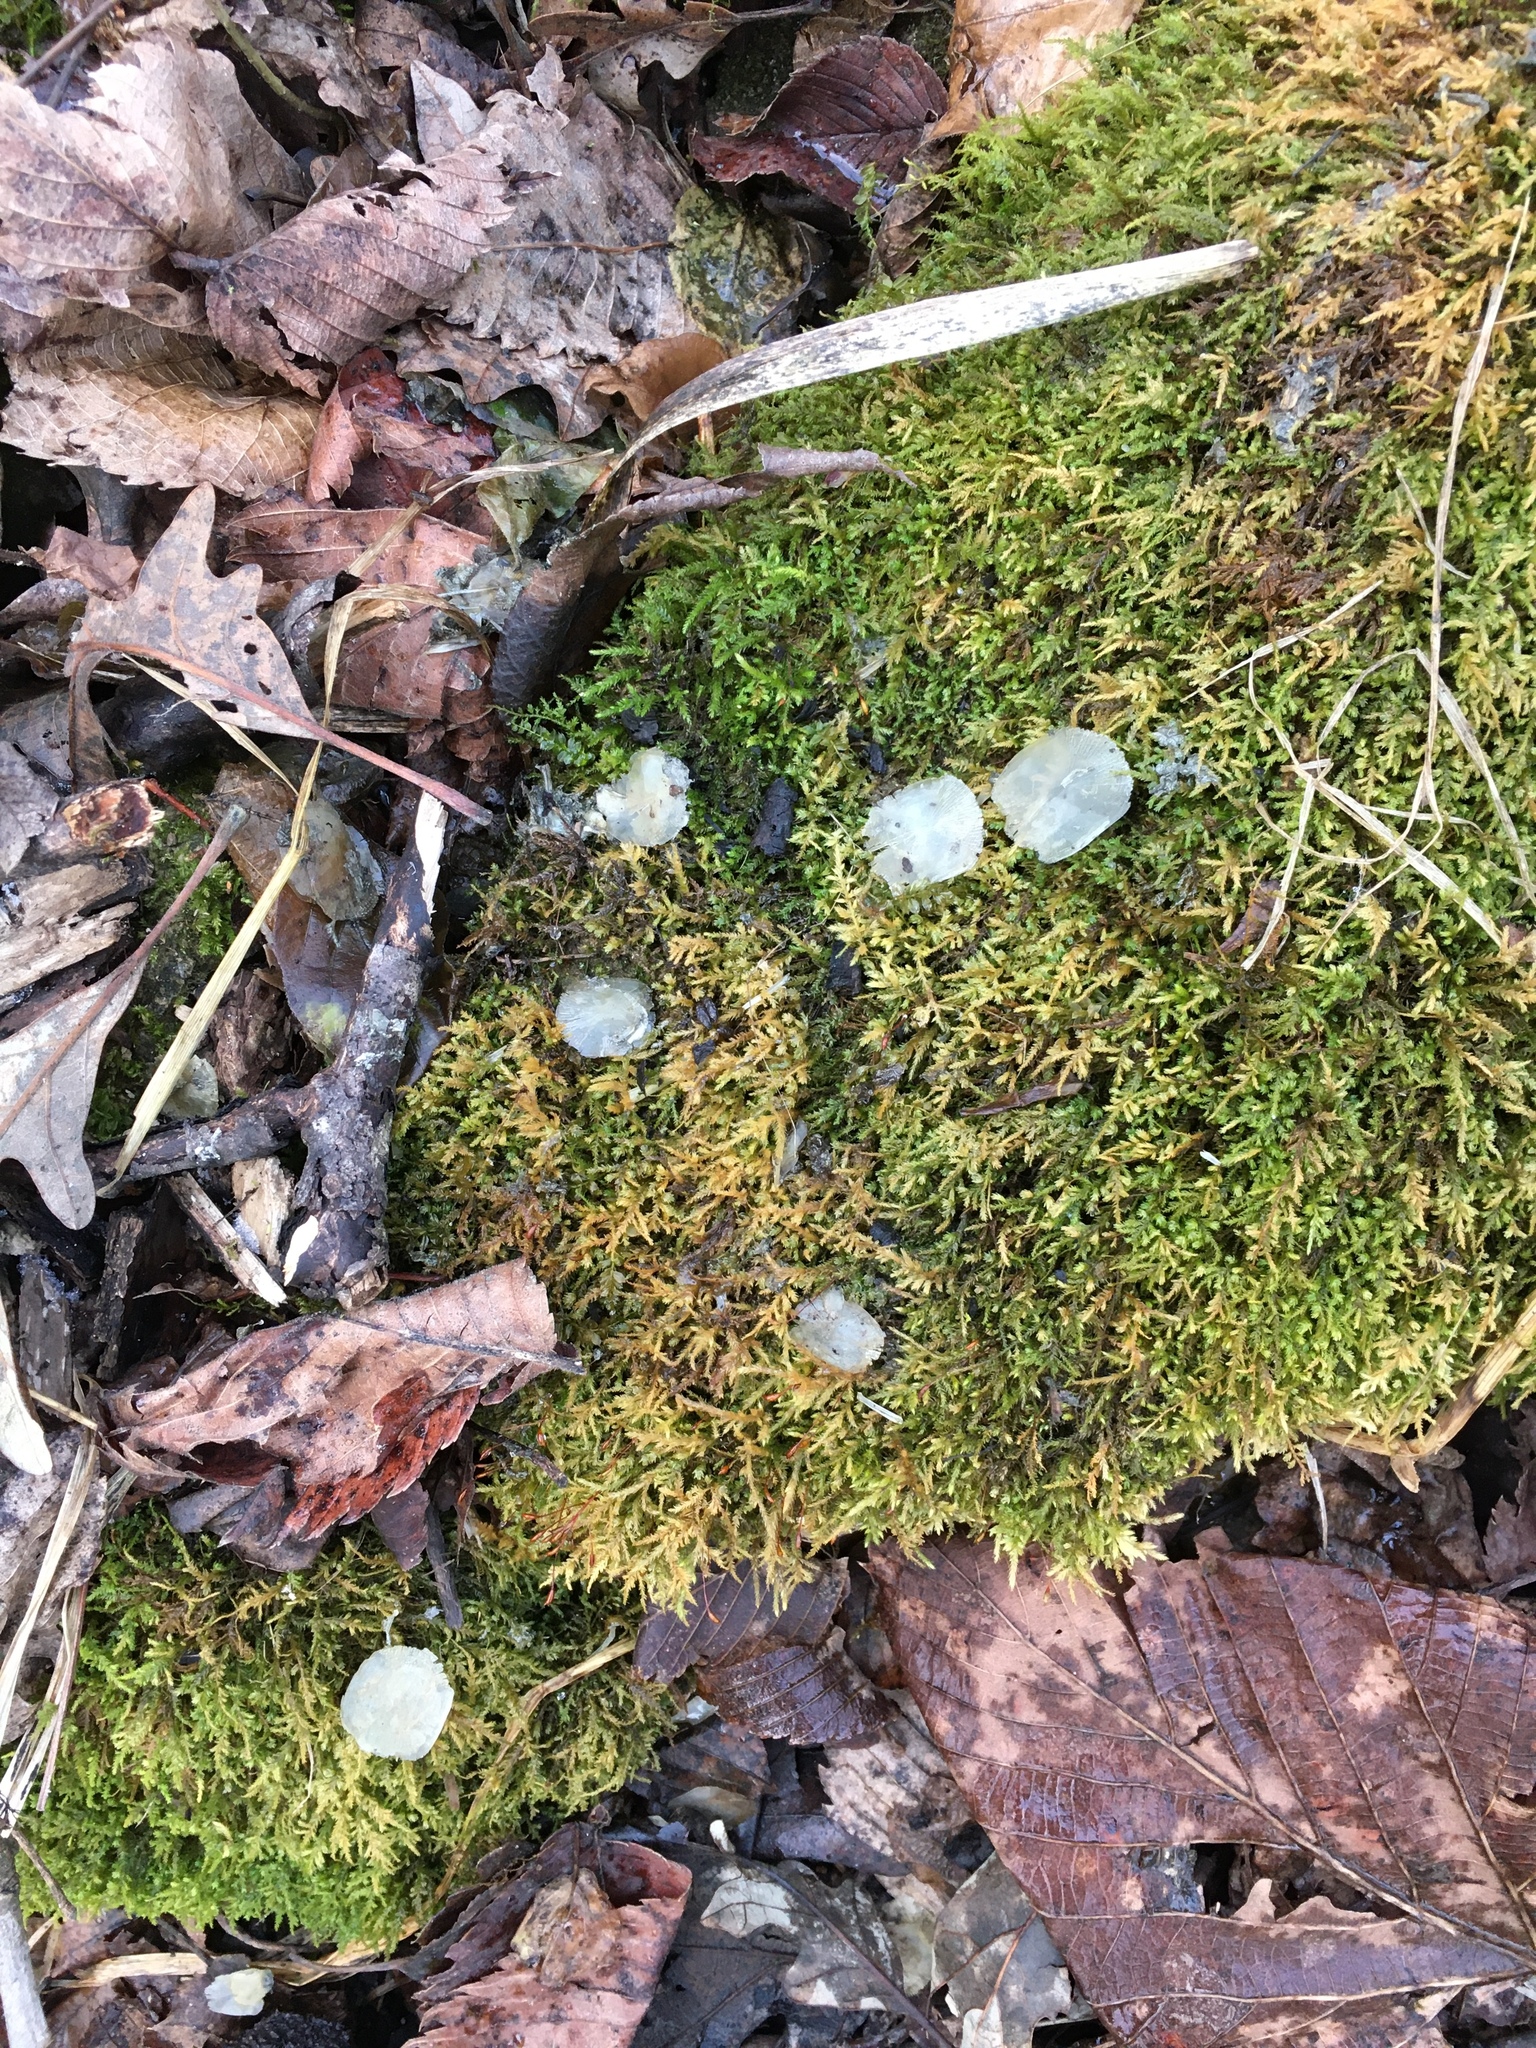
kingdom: Animalia
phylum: Chordata
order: Cypriniformes
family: Cyprinidae
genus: Cyprinus
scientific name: Cyprinus carpio
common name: Common carp
